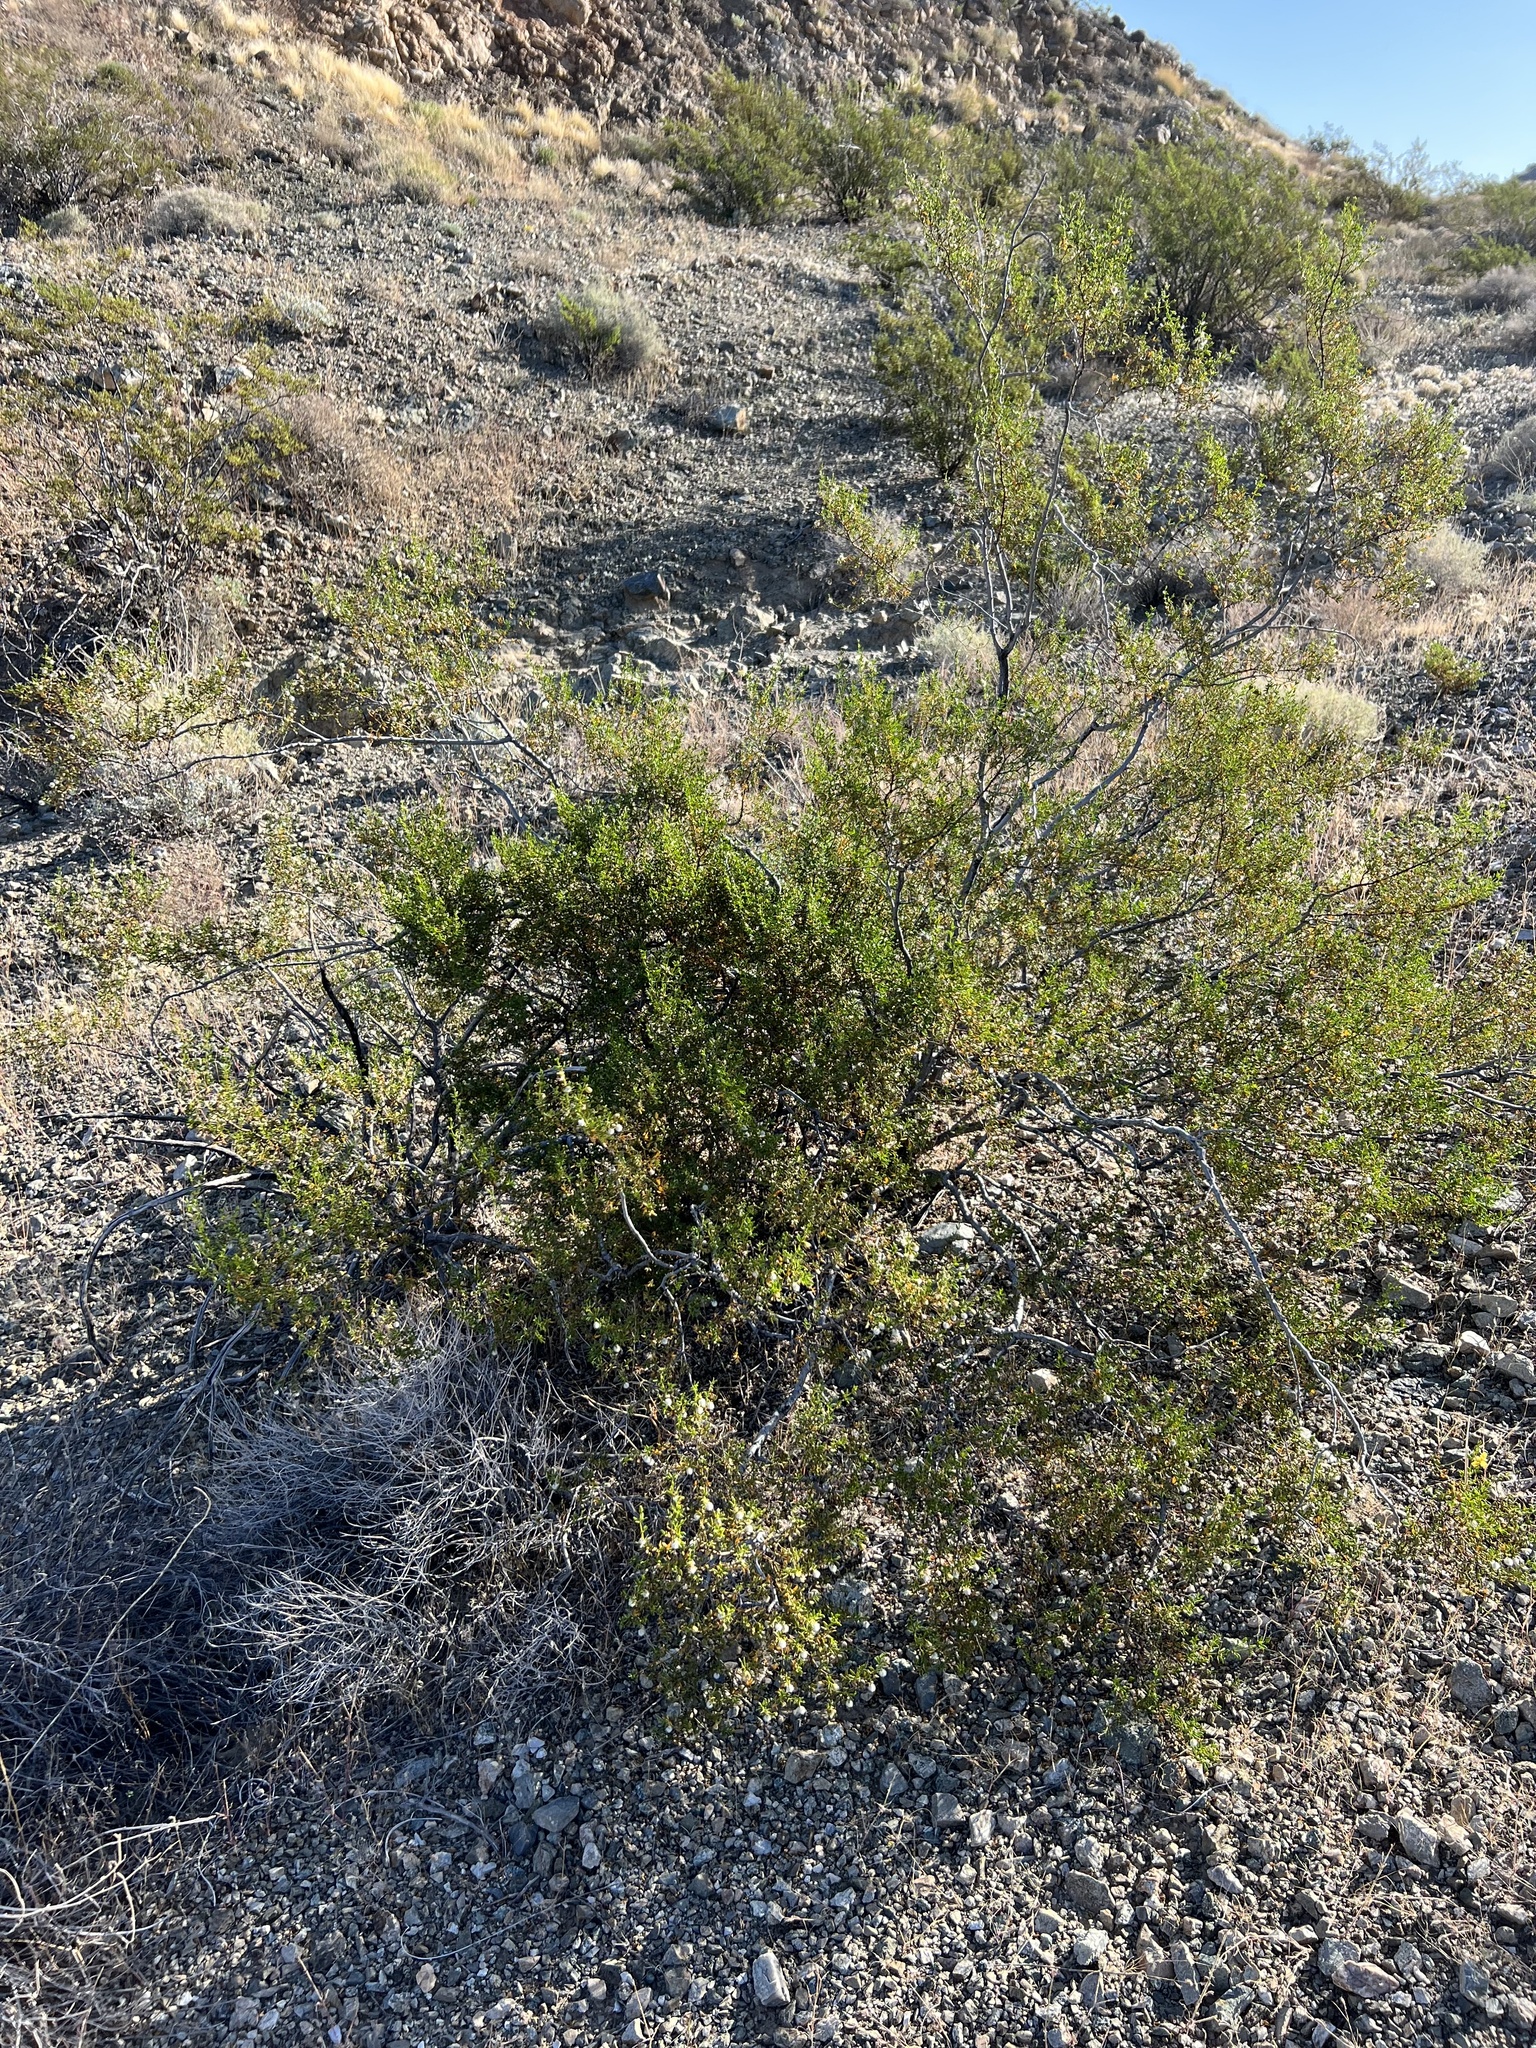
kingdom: Plantae
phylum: Tracheophyta
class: Magnoliopsida
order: Zygophyllales
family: Zygophyllaceae
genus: Larrea
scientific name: Larrea tridentata
